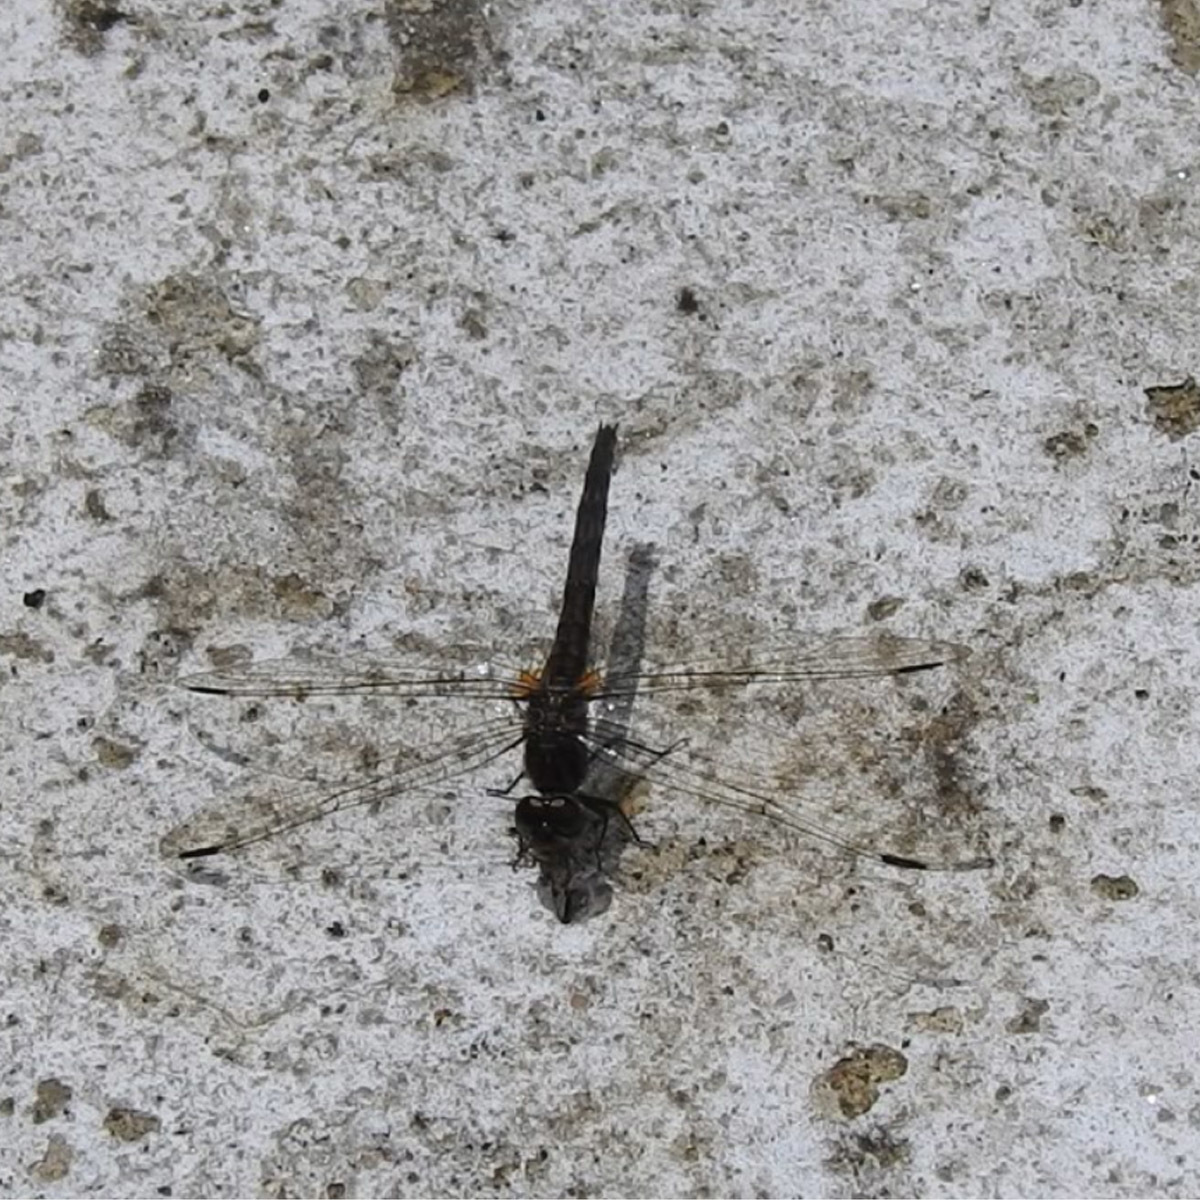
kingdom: Animalia
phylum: Arthropoda
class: Insecta
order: Odonata
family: Libellulidae
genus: Trithemis
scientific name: Trithemis festiva
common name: Indigo dropwing
